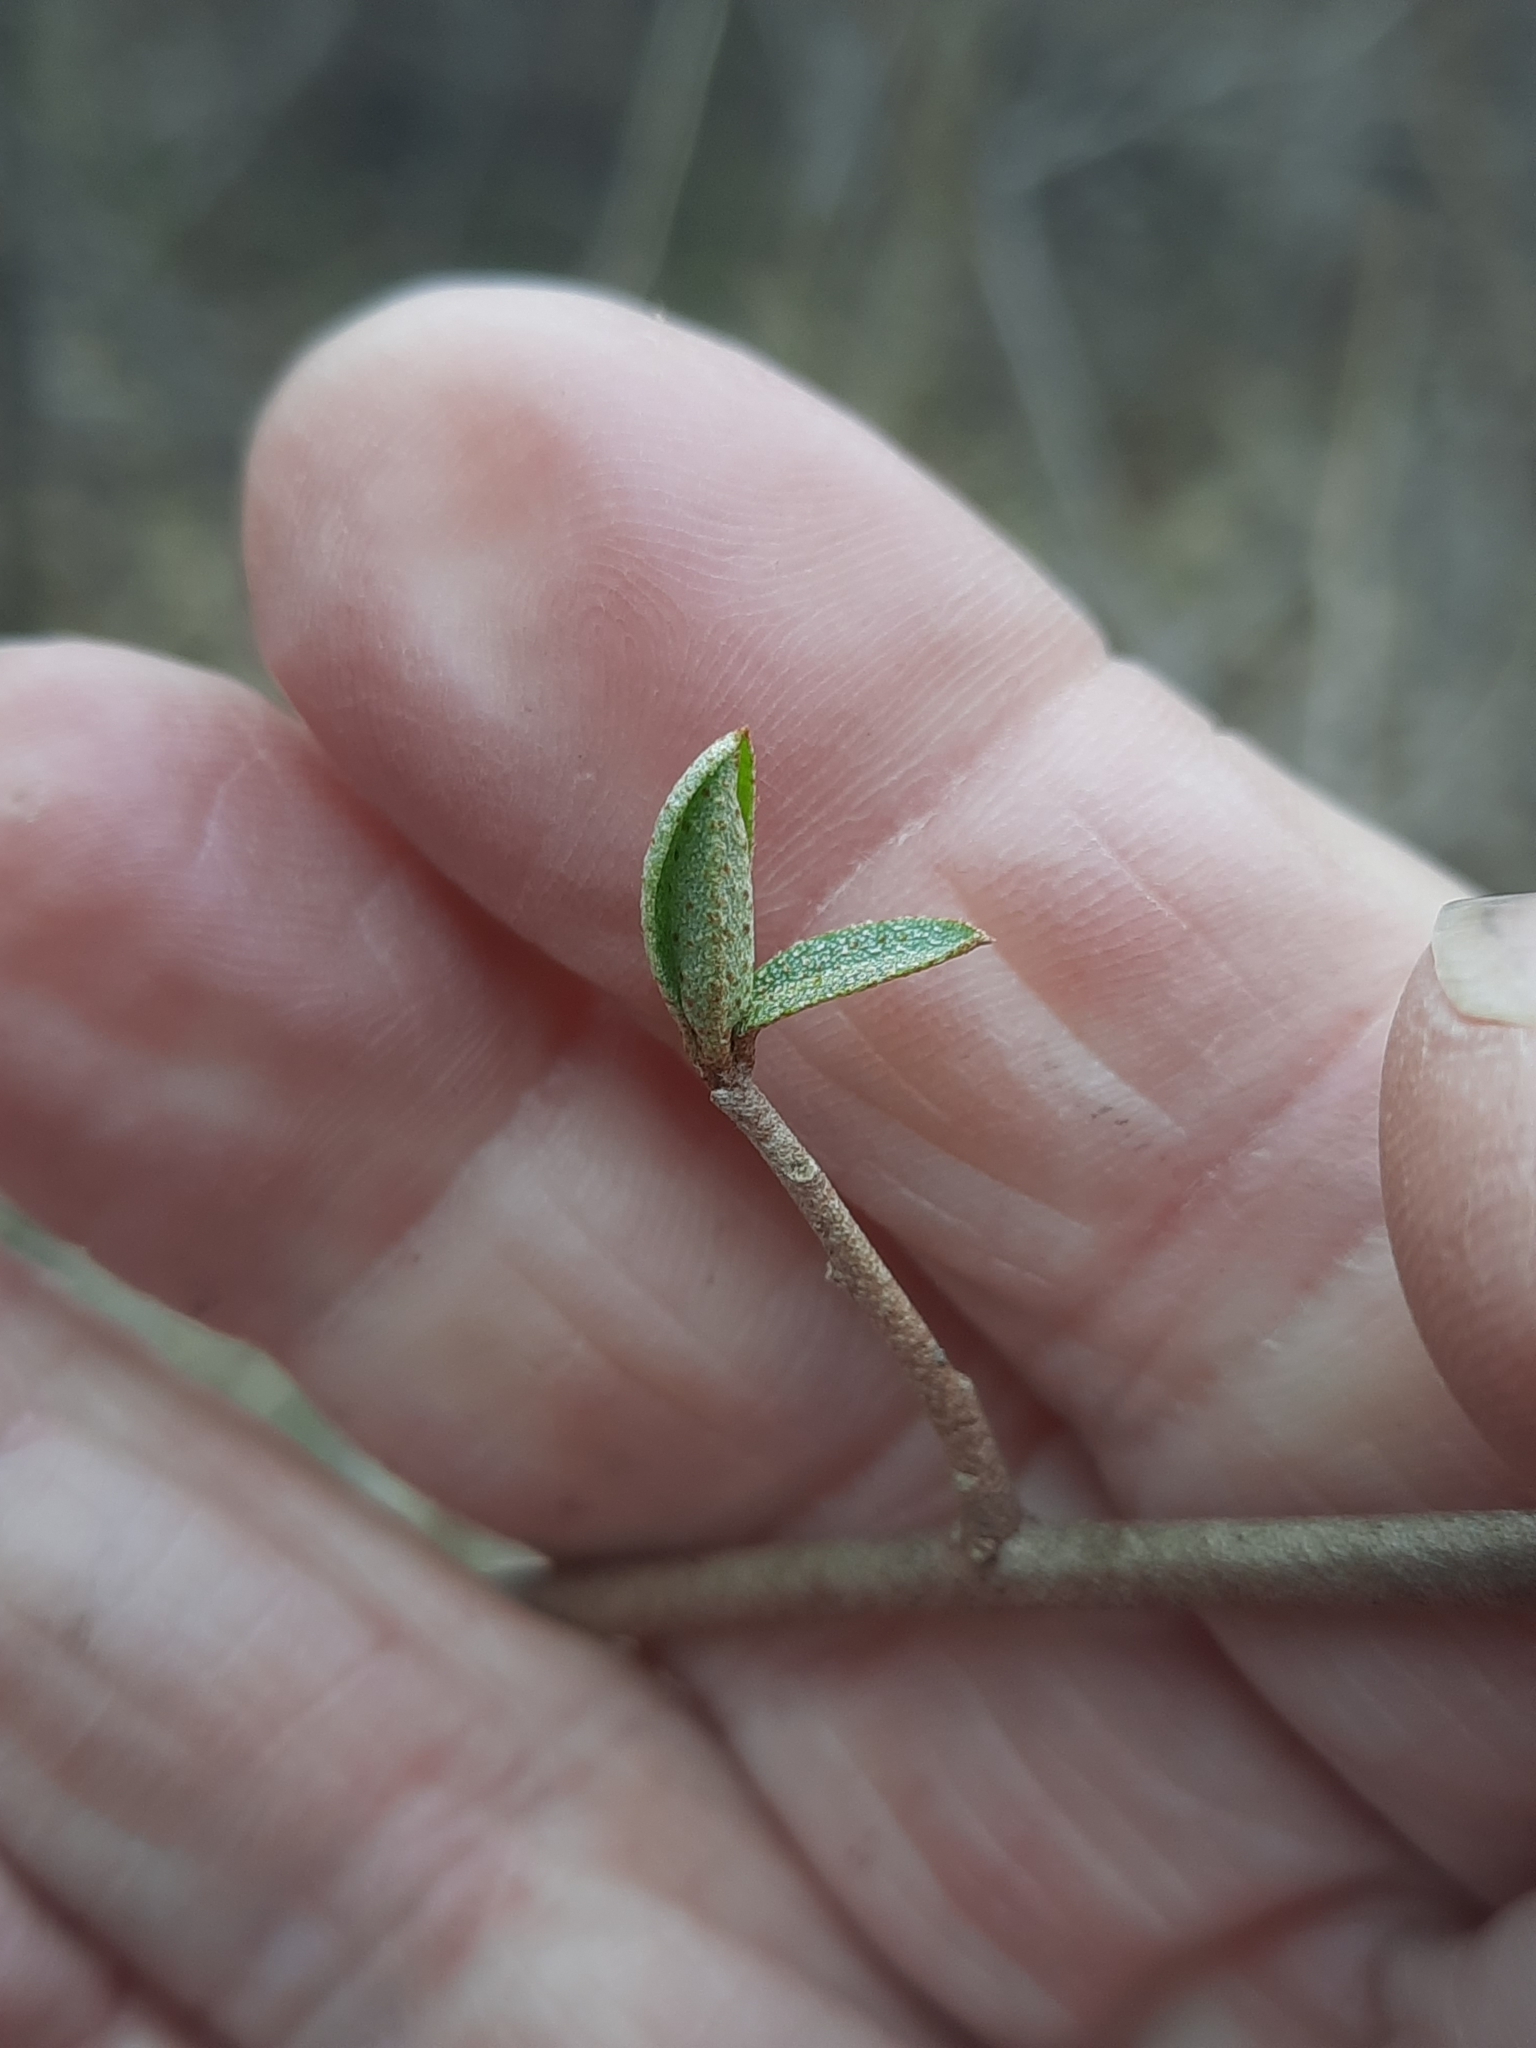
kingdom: Plantae
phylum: Tracheophyta
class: Magnoliopsida
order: Rosales
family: Elaeagnaceae
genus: Elaeagnus
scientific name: Elaeagnus umbellata
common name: Autumn olive
